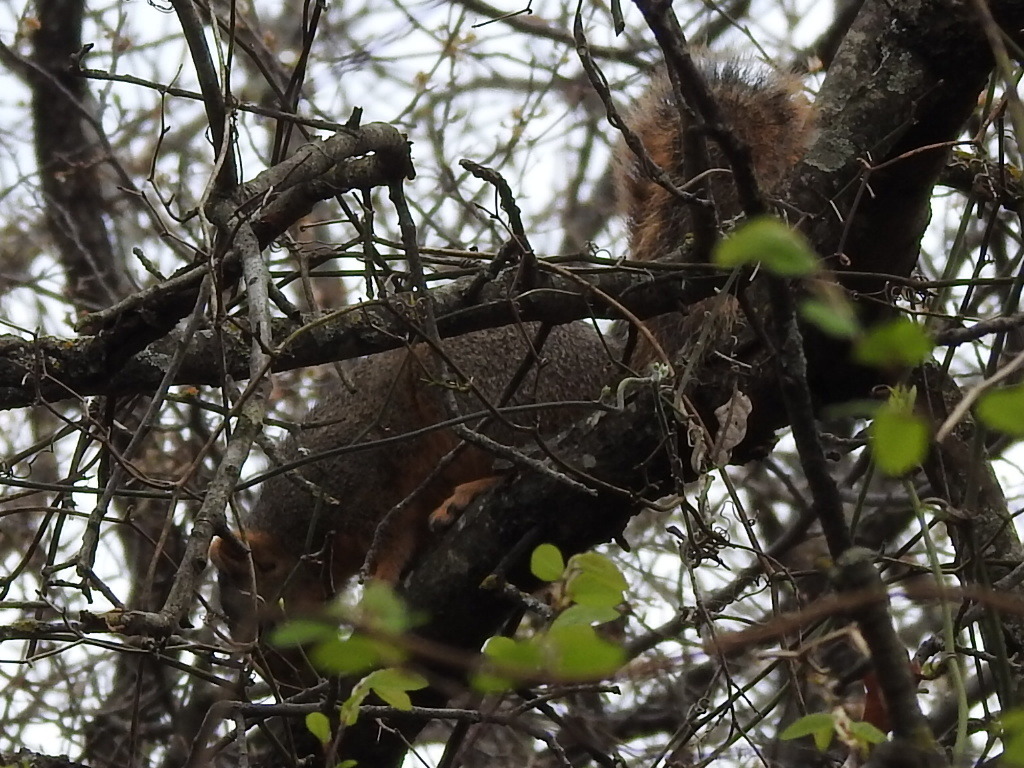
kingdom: Animalia
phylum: Chordata
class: Mammalia
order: Rodentia
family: Sciuridae
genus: Sciurus
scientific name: Sciurus niger
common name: Fox squirrel
